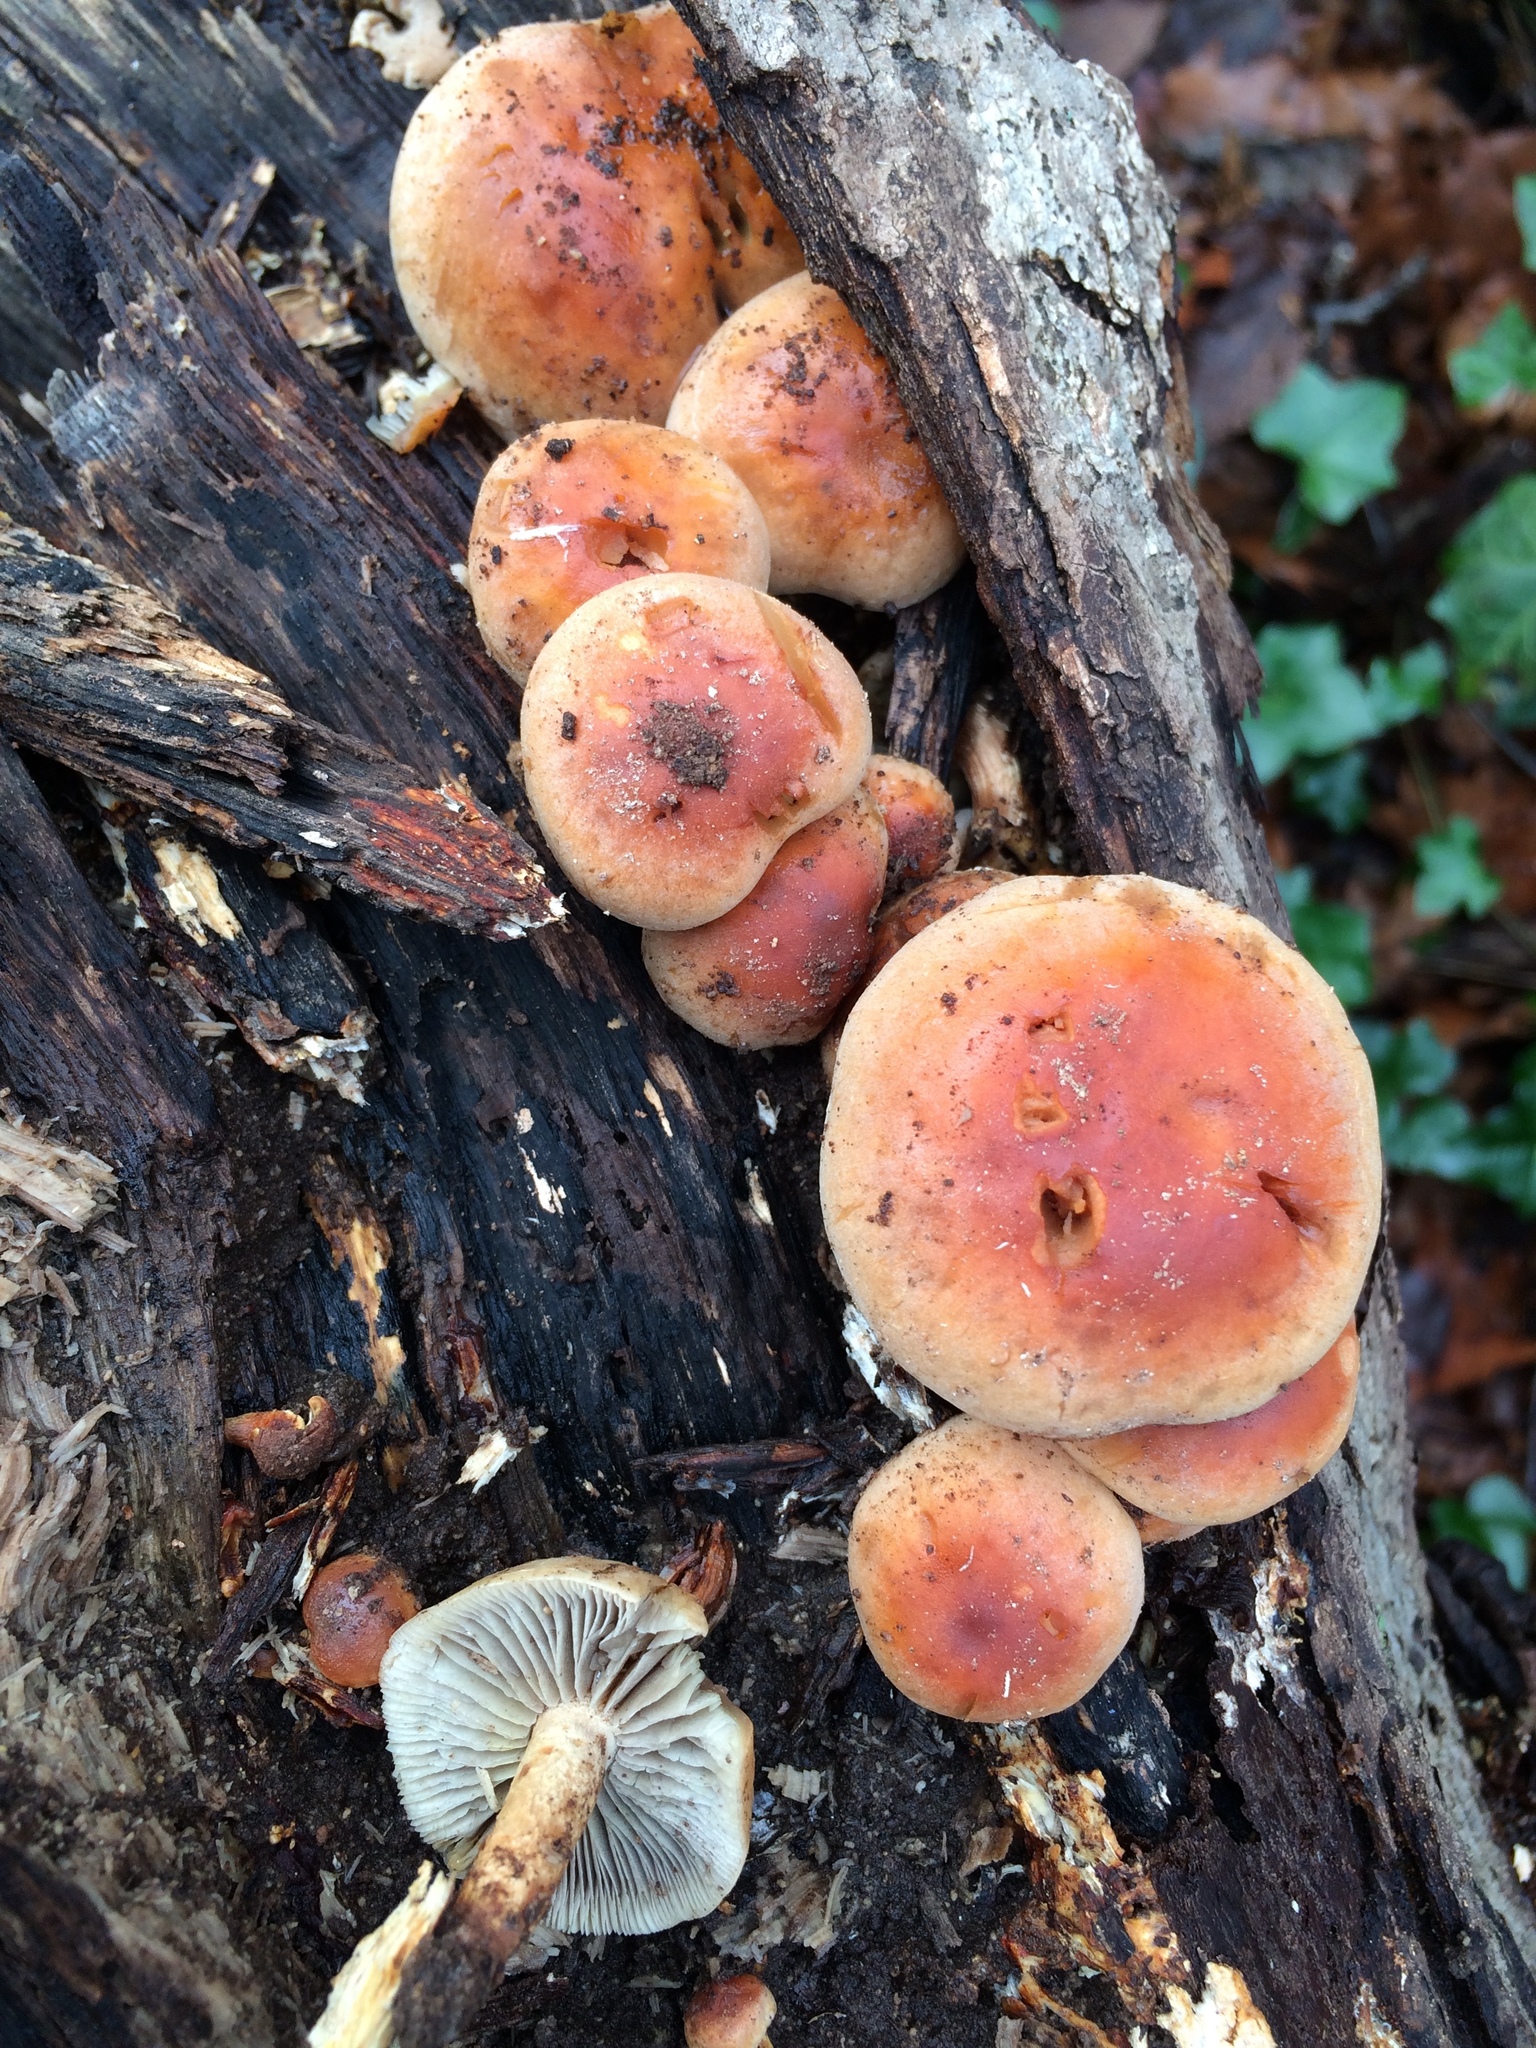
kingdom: Fungi
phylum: Basidiomycota
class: Agaricomycetes
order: Agaricales
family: Strophariaceae
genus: Hypholoma
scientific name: Hypholoma lateritium
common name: Brick caps
